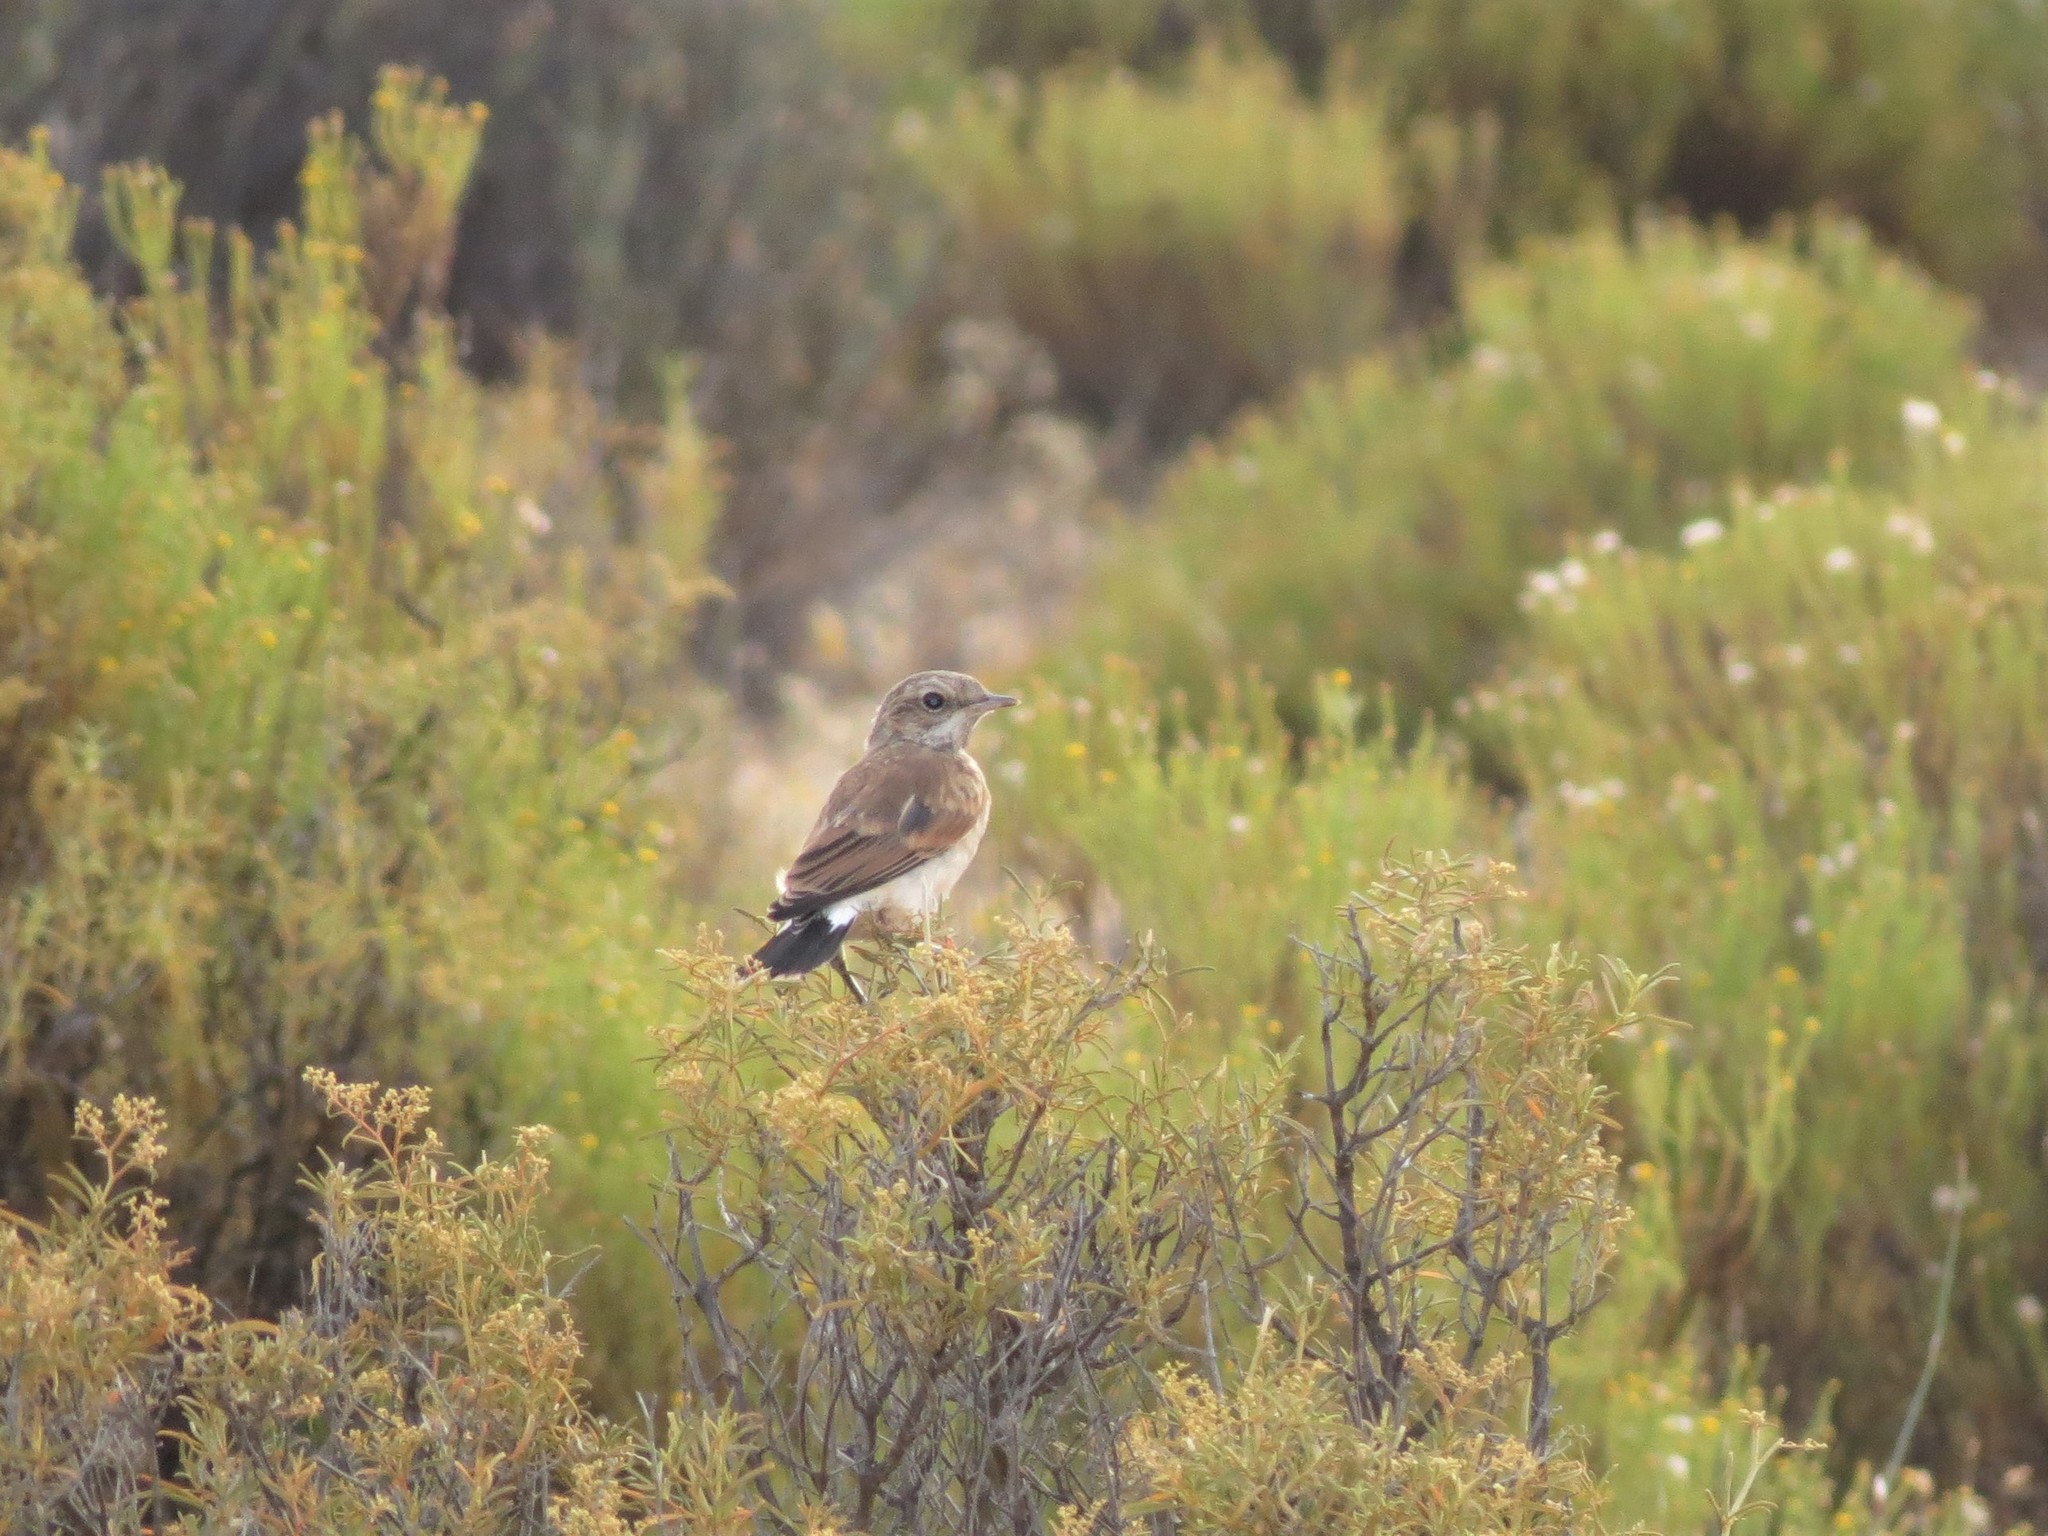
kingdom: Animalia
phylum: Chordata
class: Aves
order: Passeriformes
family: Muscicapidae
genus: Oenanthe
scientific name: Oenanthe pileata
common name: Capped wheatear
